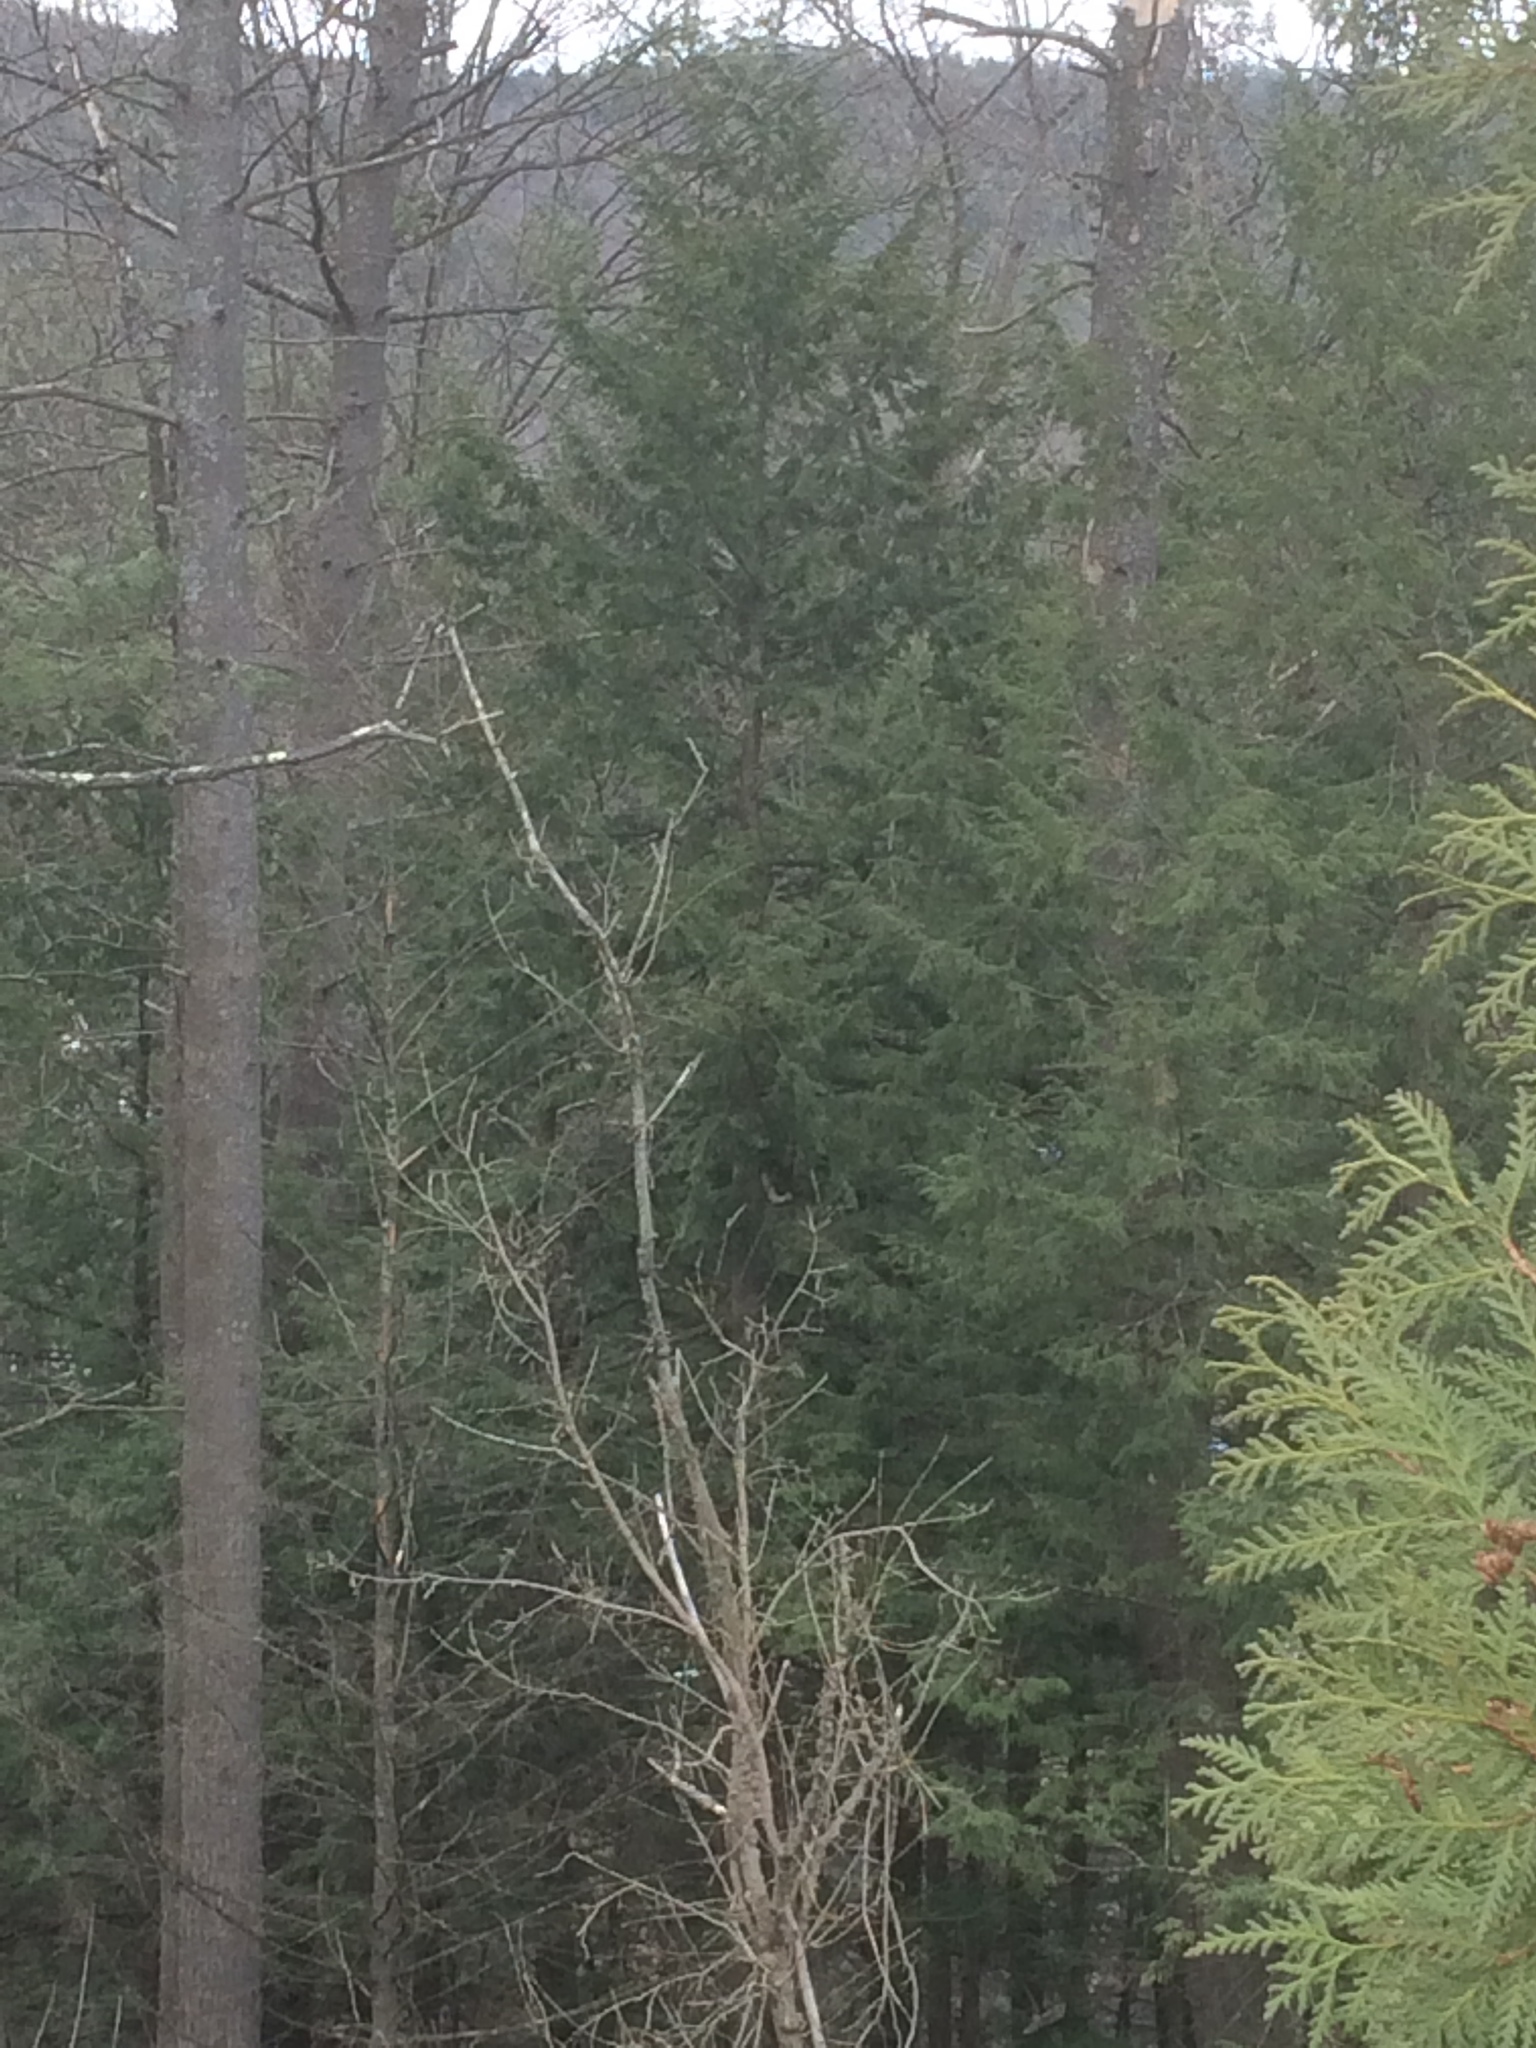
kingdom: Plantae
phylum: Tracheophyta
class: Pinopsida
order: Pinales
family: Pinaceae
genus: Tsuga
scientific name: Tsuga canadensis
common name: Eastern hemlock
